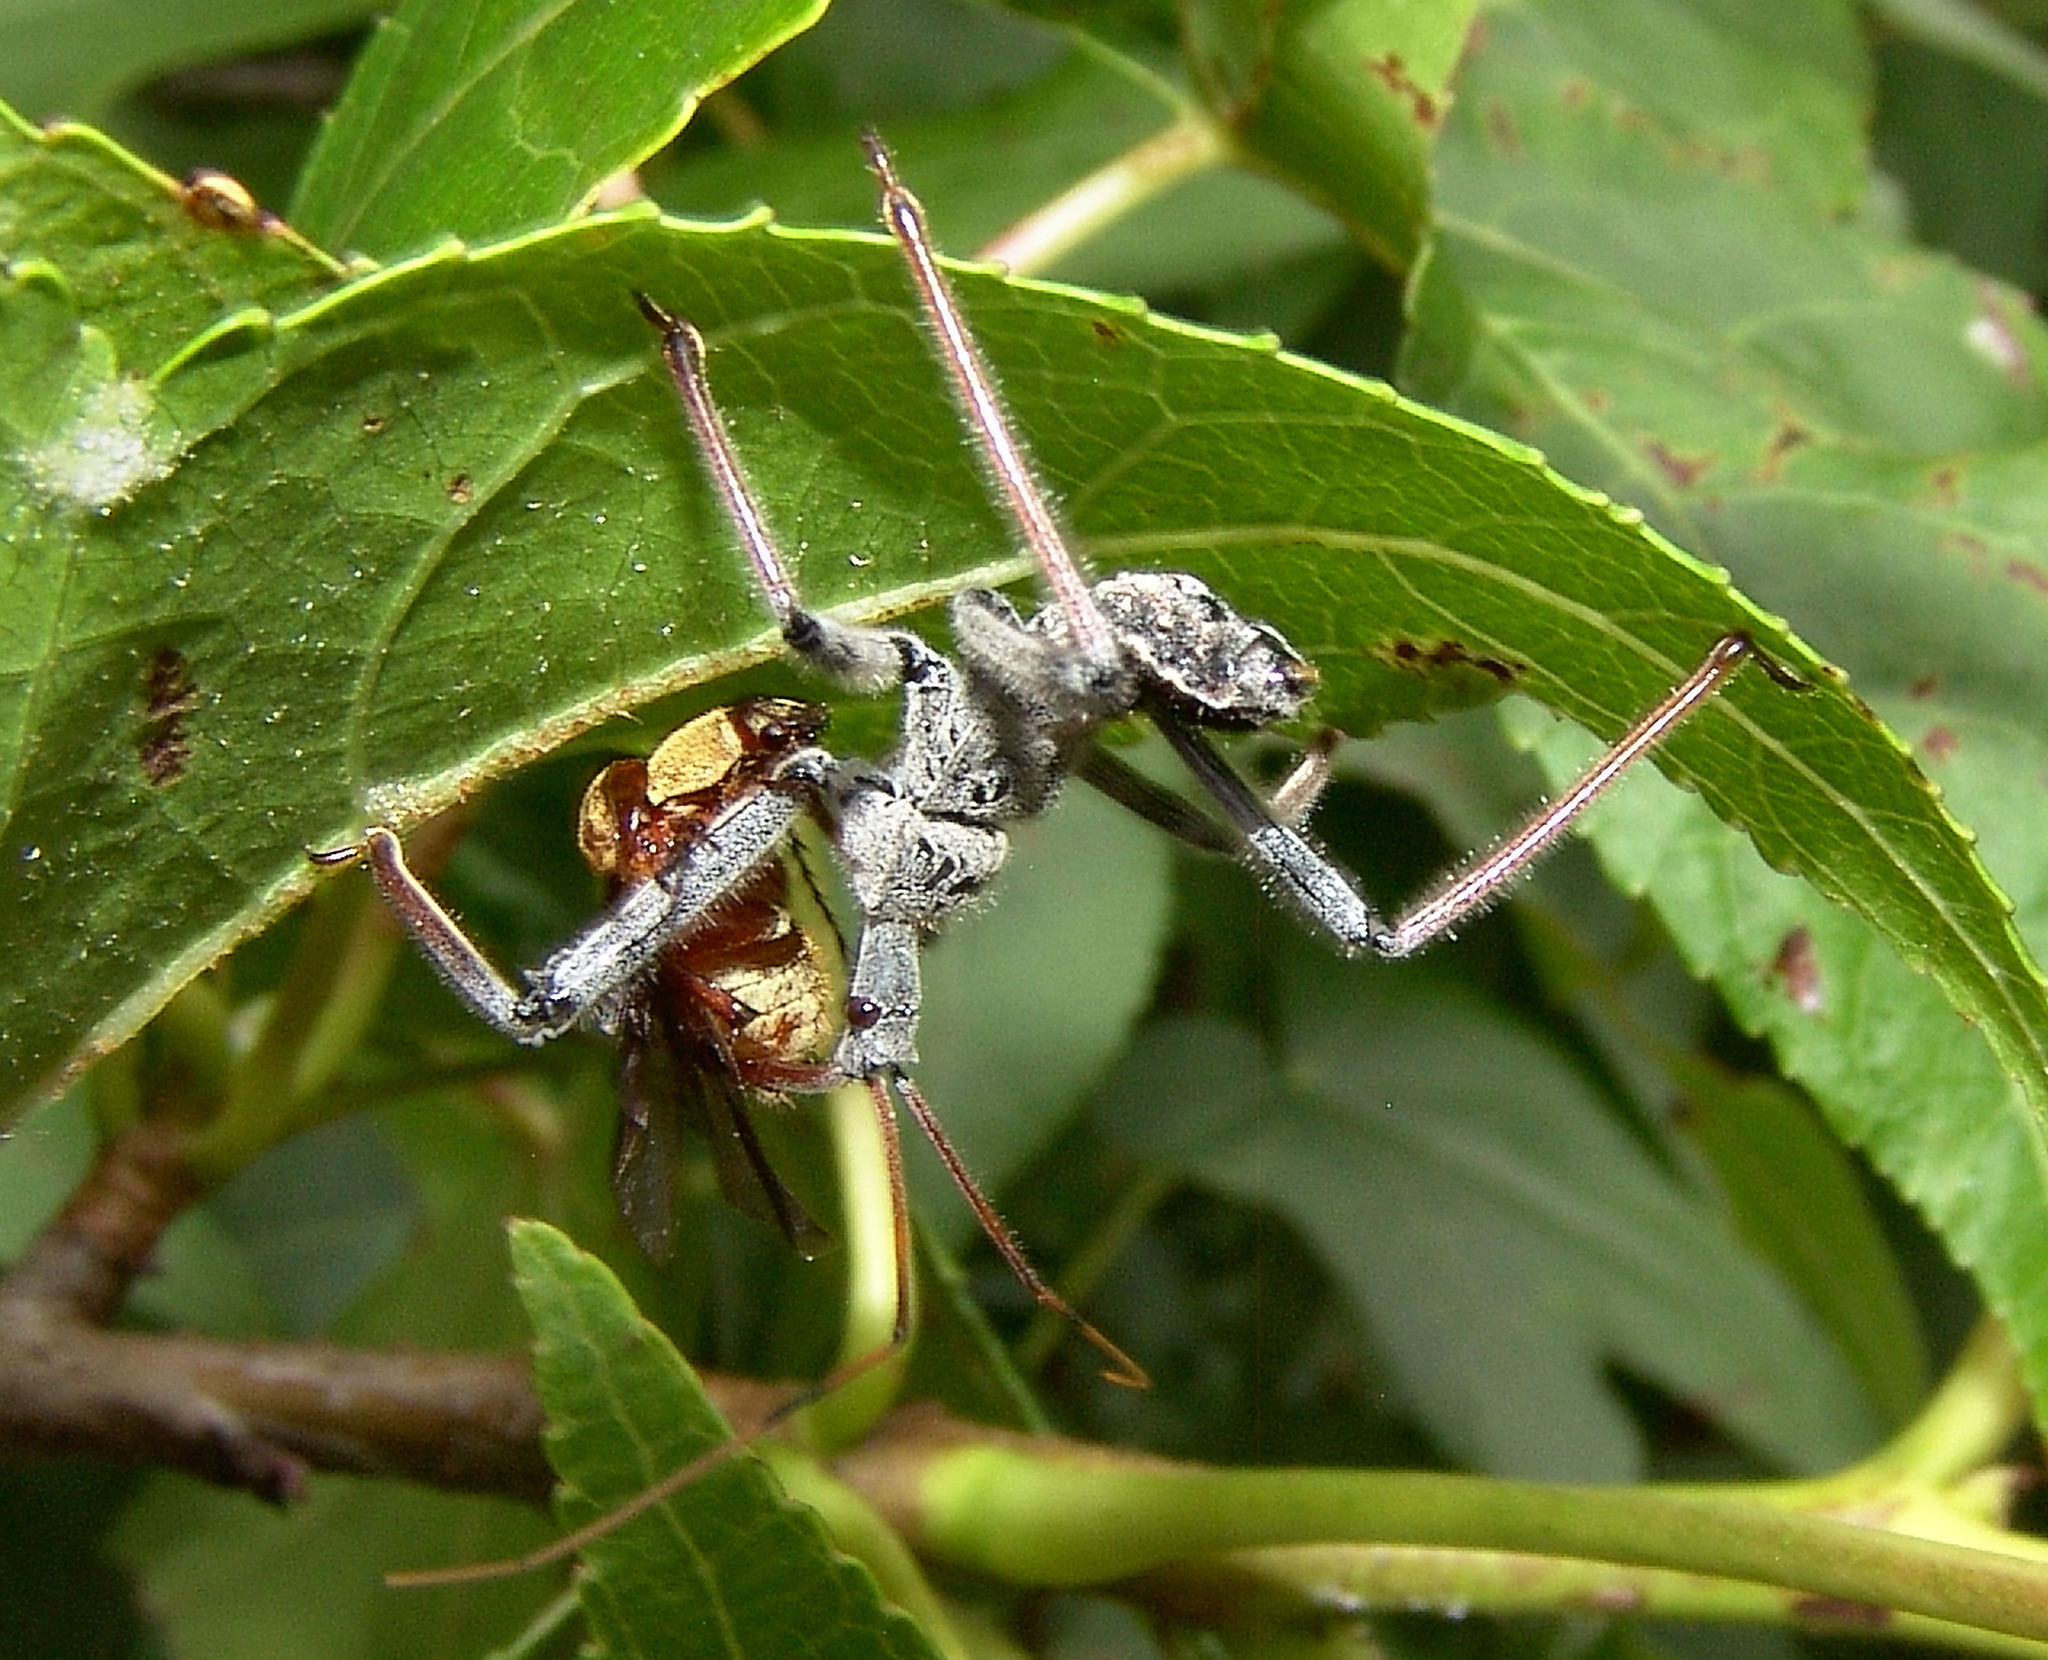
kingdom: Animalia
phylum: Arthropoda
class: Insecta
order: Hemiptera
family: Reduviidae
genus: Arilus
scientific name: Arilus cristatus
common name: North american wheel bug
